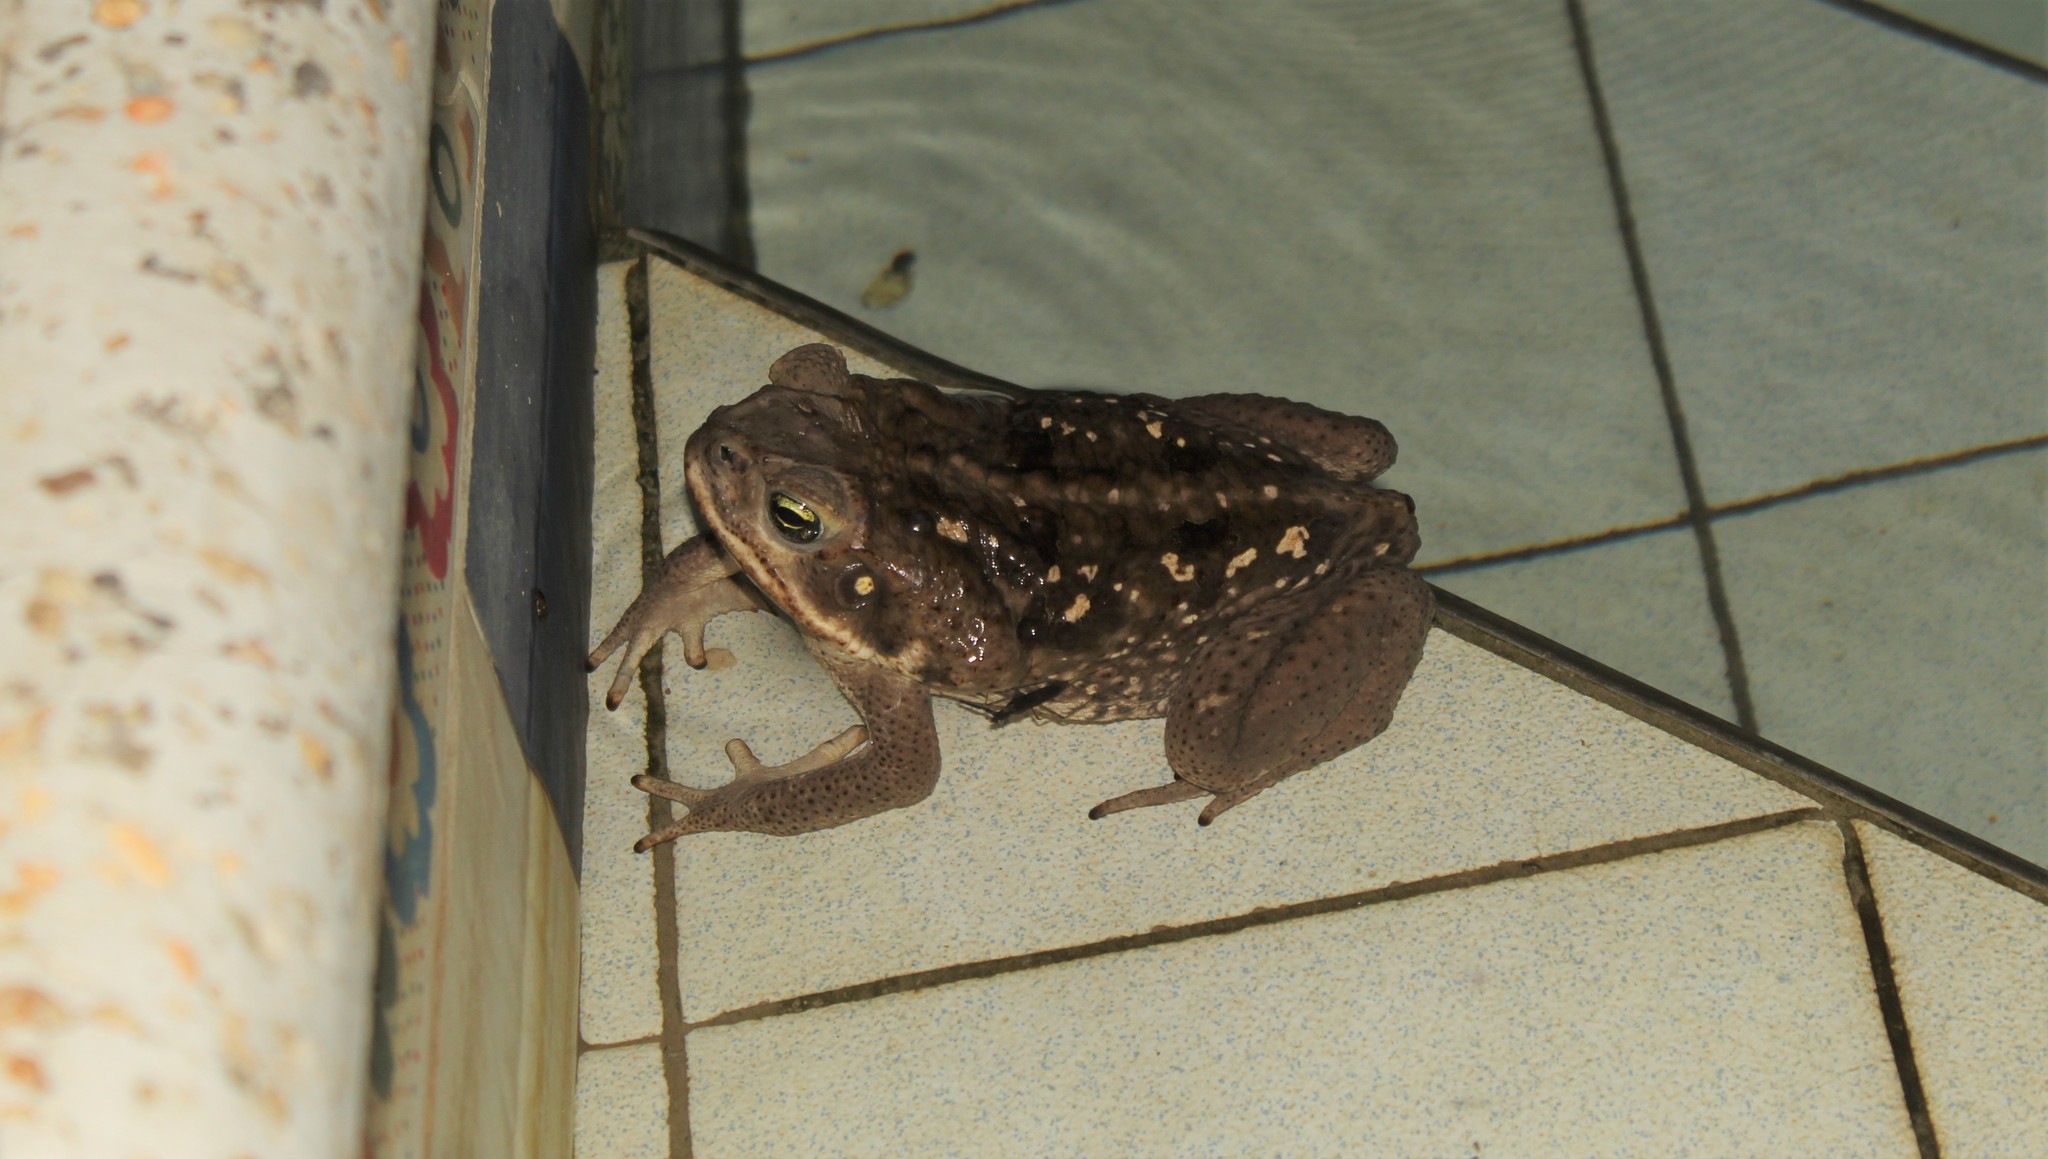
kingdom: Animalia
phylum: Chordata
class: Amphibia
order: Anura
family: Bufonidae
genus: Rhinella
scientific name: Rhinella marina
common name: Cane toad
